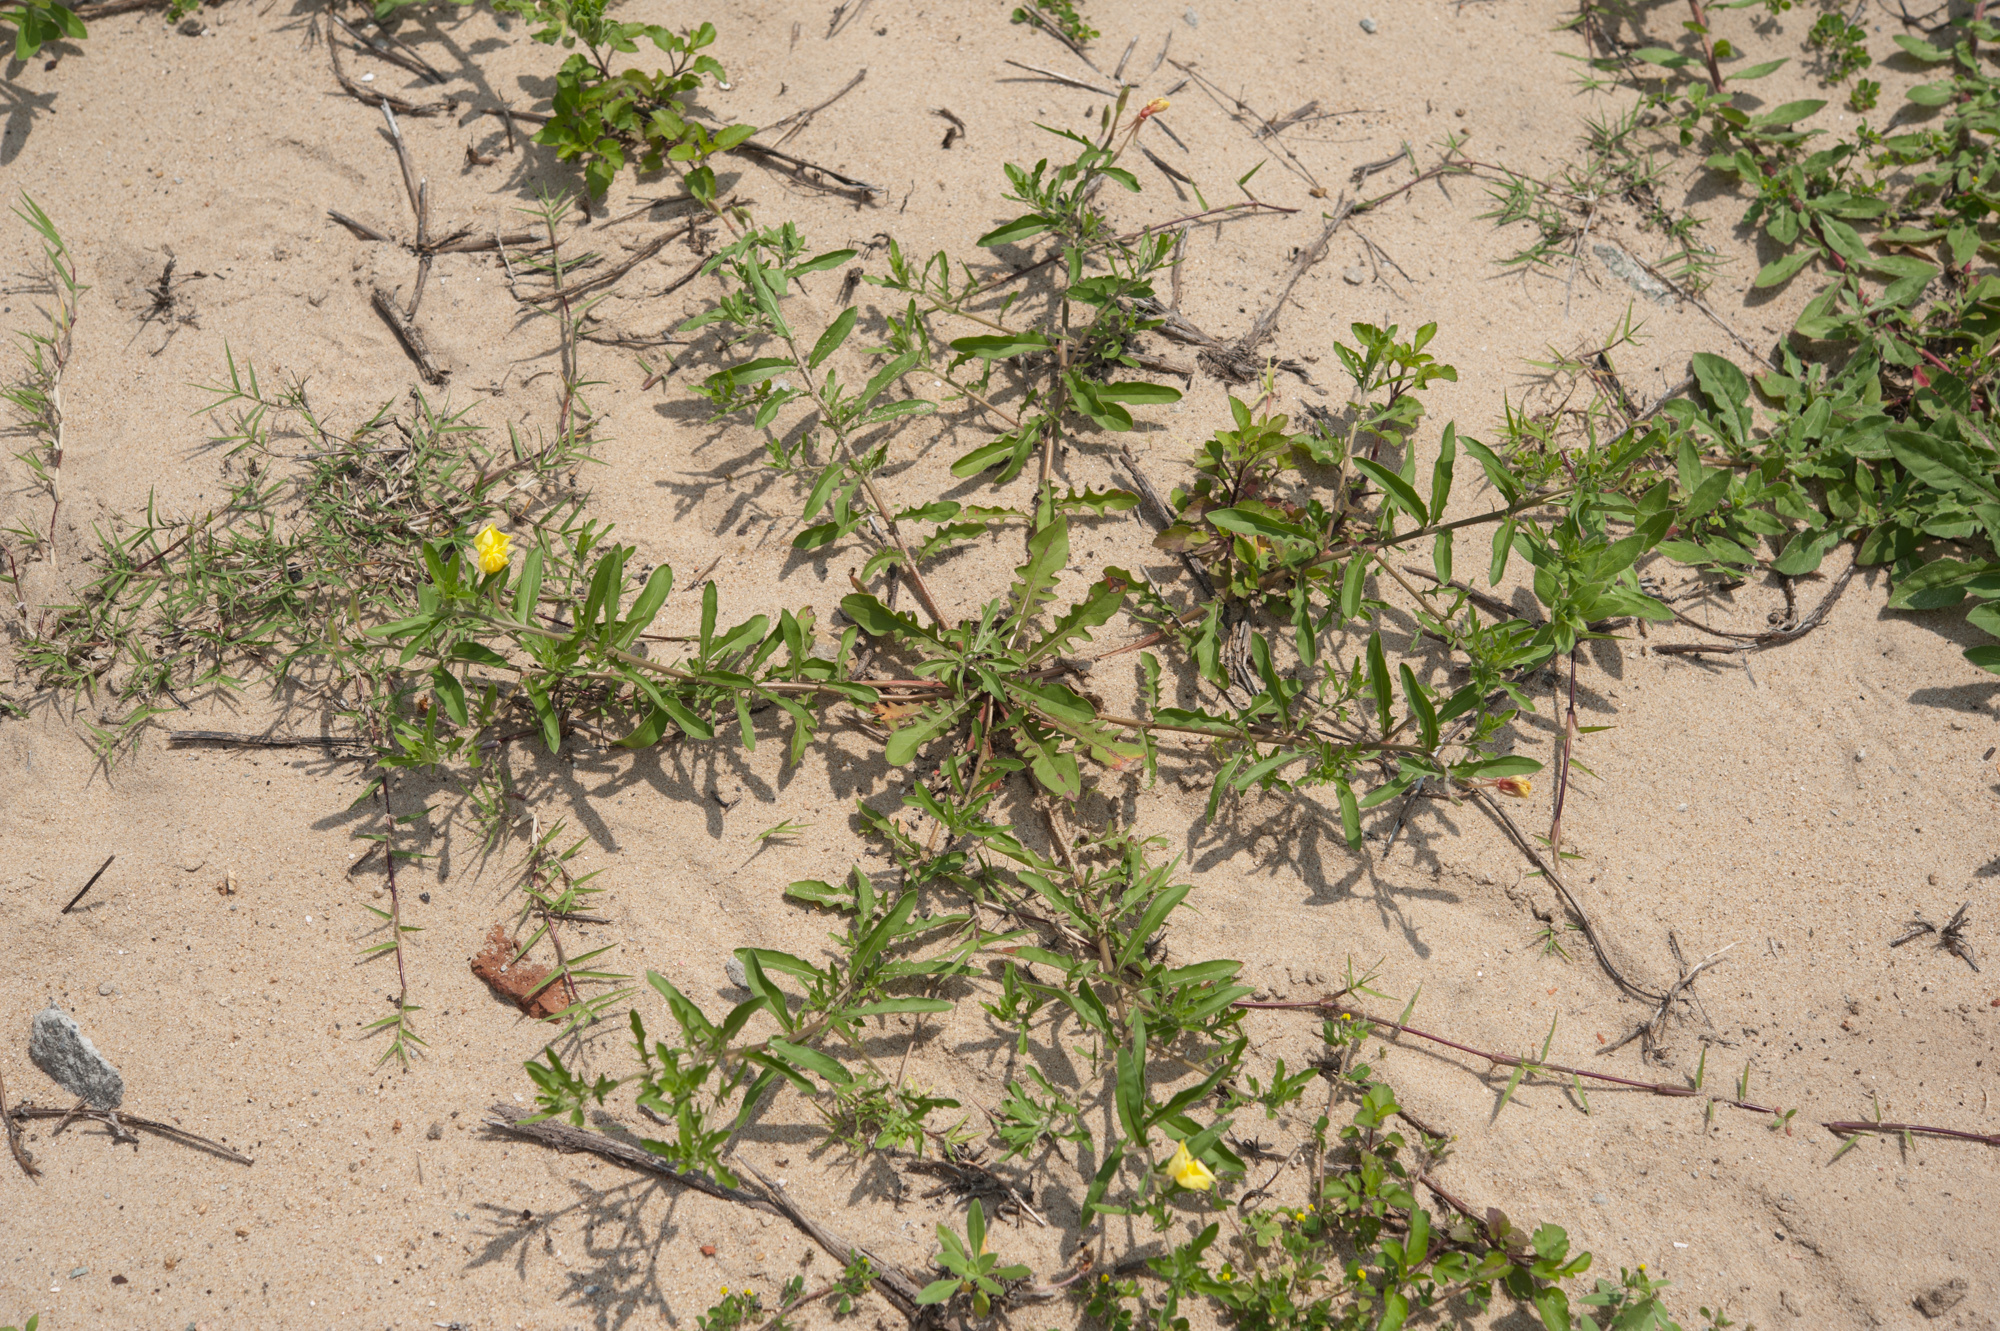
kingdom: Plantae
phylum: Tracheophyta
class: Magnoliopsida
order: Myrtales
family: Onagraceae
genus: Oenothera
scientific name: Oenothera laciniata
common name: Cut-leaved evening-primrose
